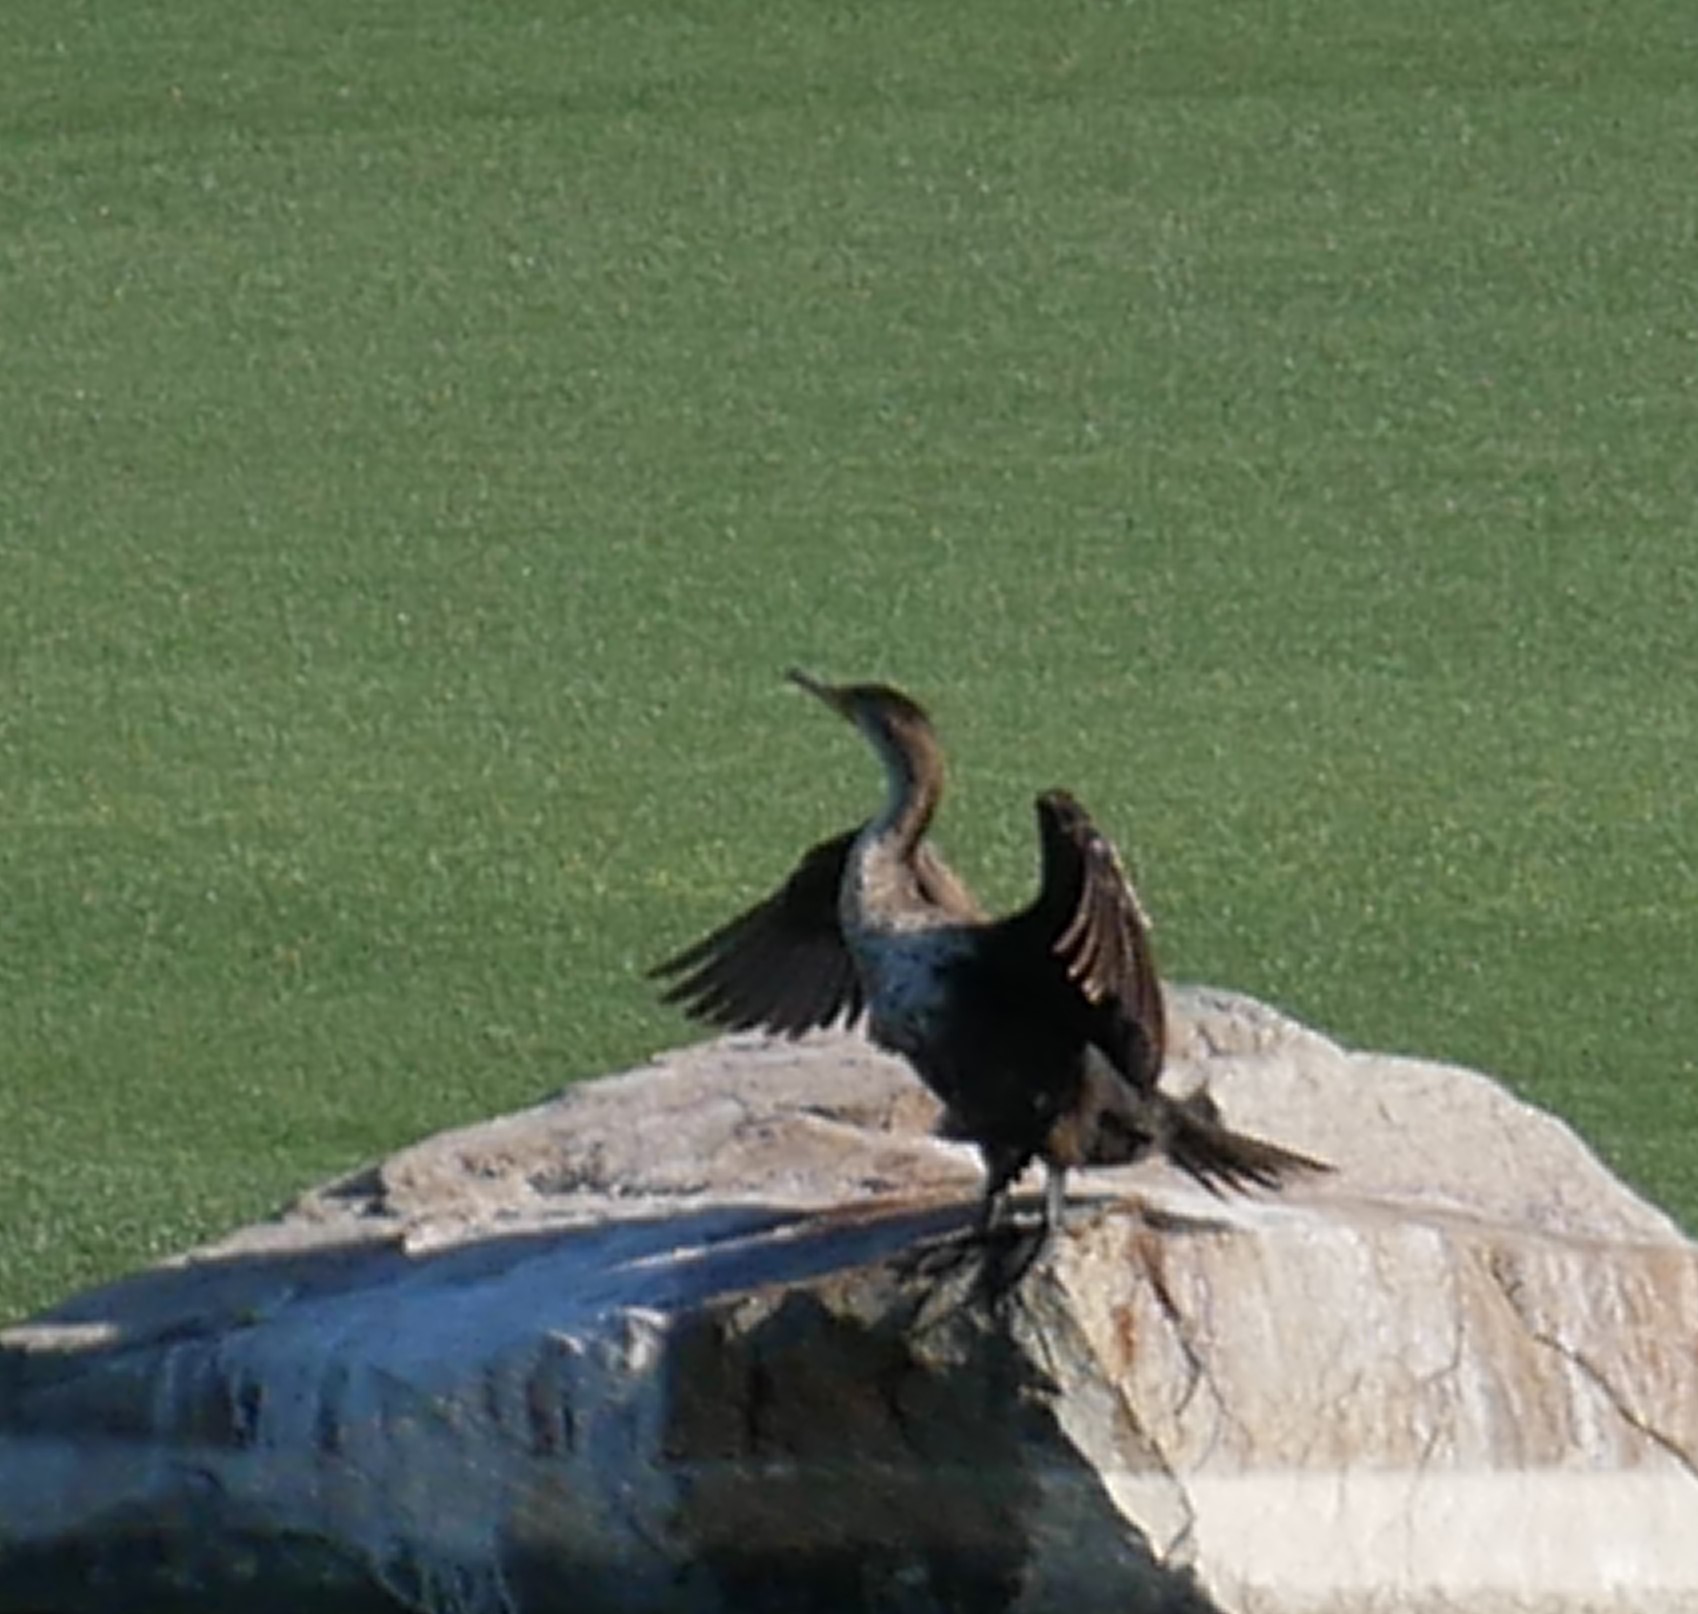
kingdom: Animalia
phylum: Chordata
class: Aves
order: Suliformes
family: Phalacrocoracidae
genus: Phalacrocorax
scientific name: Phalacrocorax auritus
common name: Double-crested cormorant
